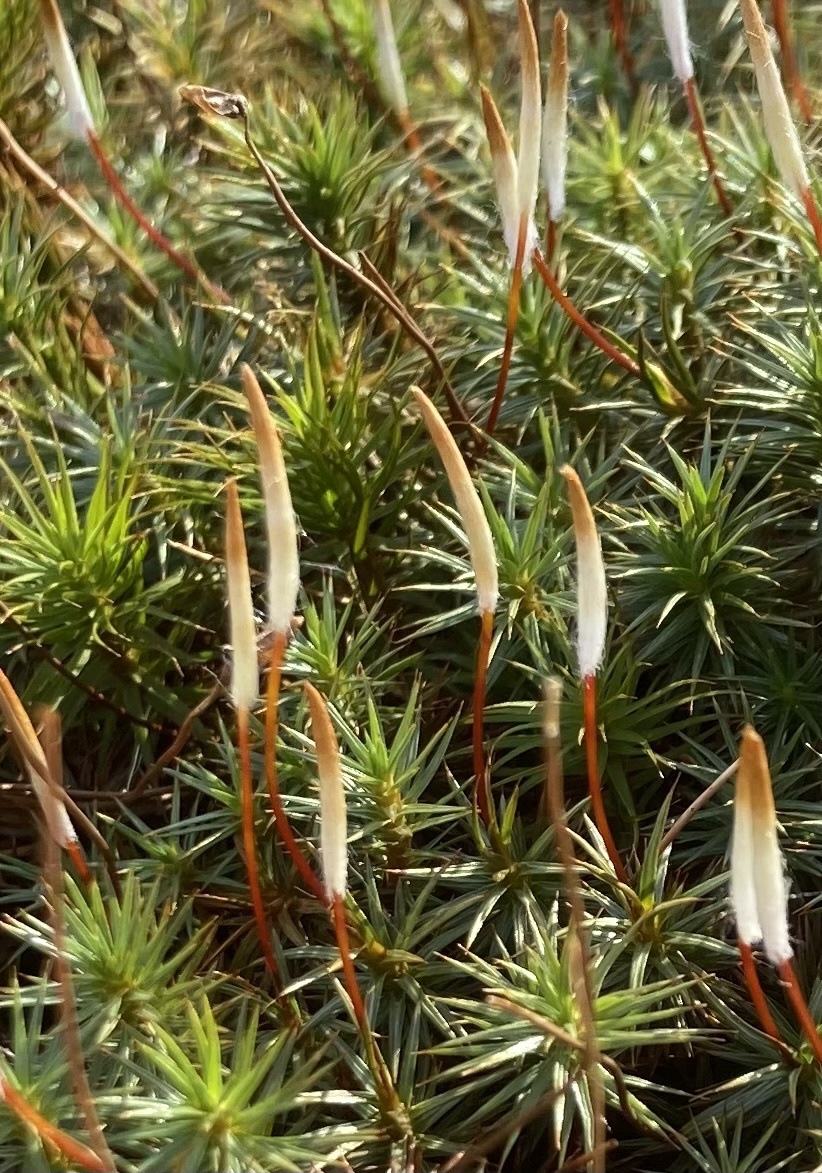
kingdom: Plantae
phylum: Bryophyta
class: Polytrichopsida
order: Polytrichales
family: Polytrichaceae
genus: Polytrichum
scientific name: Polytrichum juniperinum
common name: Juniper haircap moss
